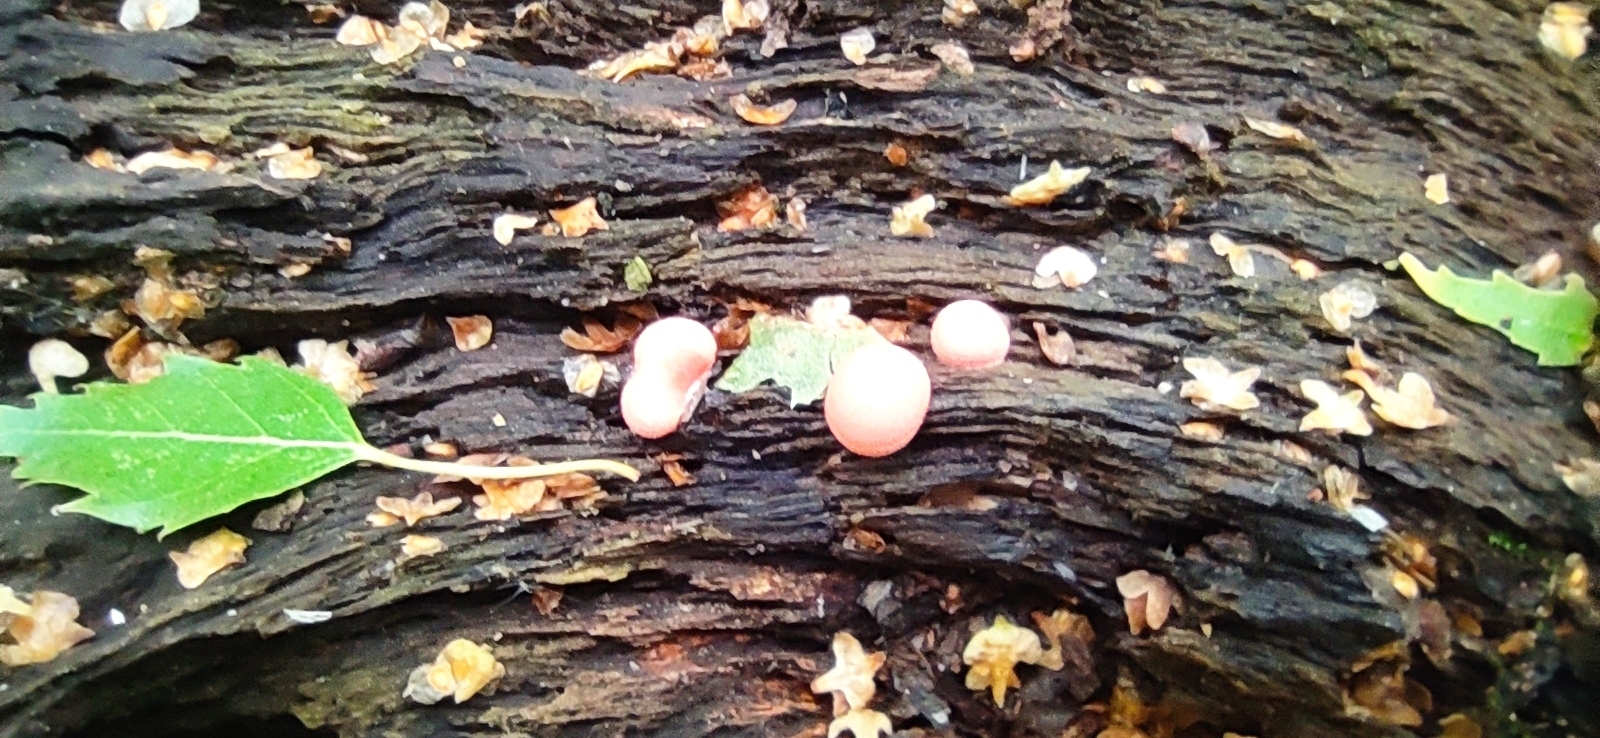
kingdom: Protozoa
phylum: Mycetozoa
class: Myxomycetes
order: Cribrariales
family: Tubiferaceae
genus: Lycogala
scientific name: Lycogala epidendrum
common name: Wolf's milk
